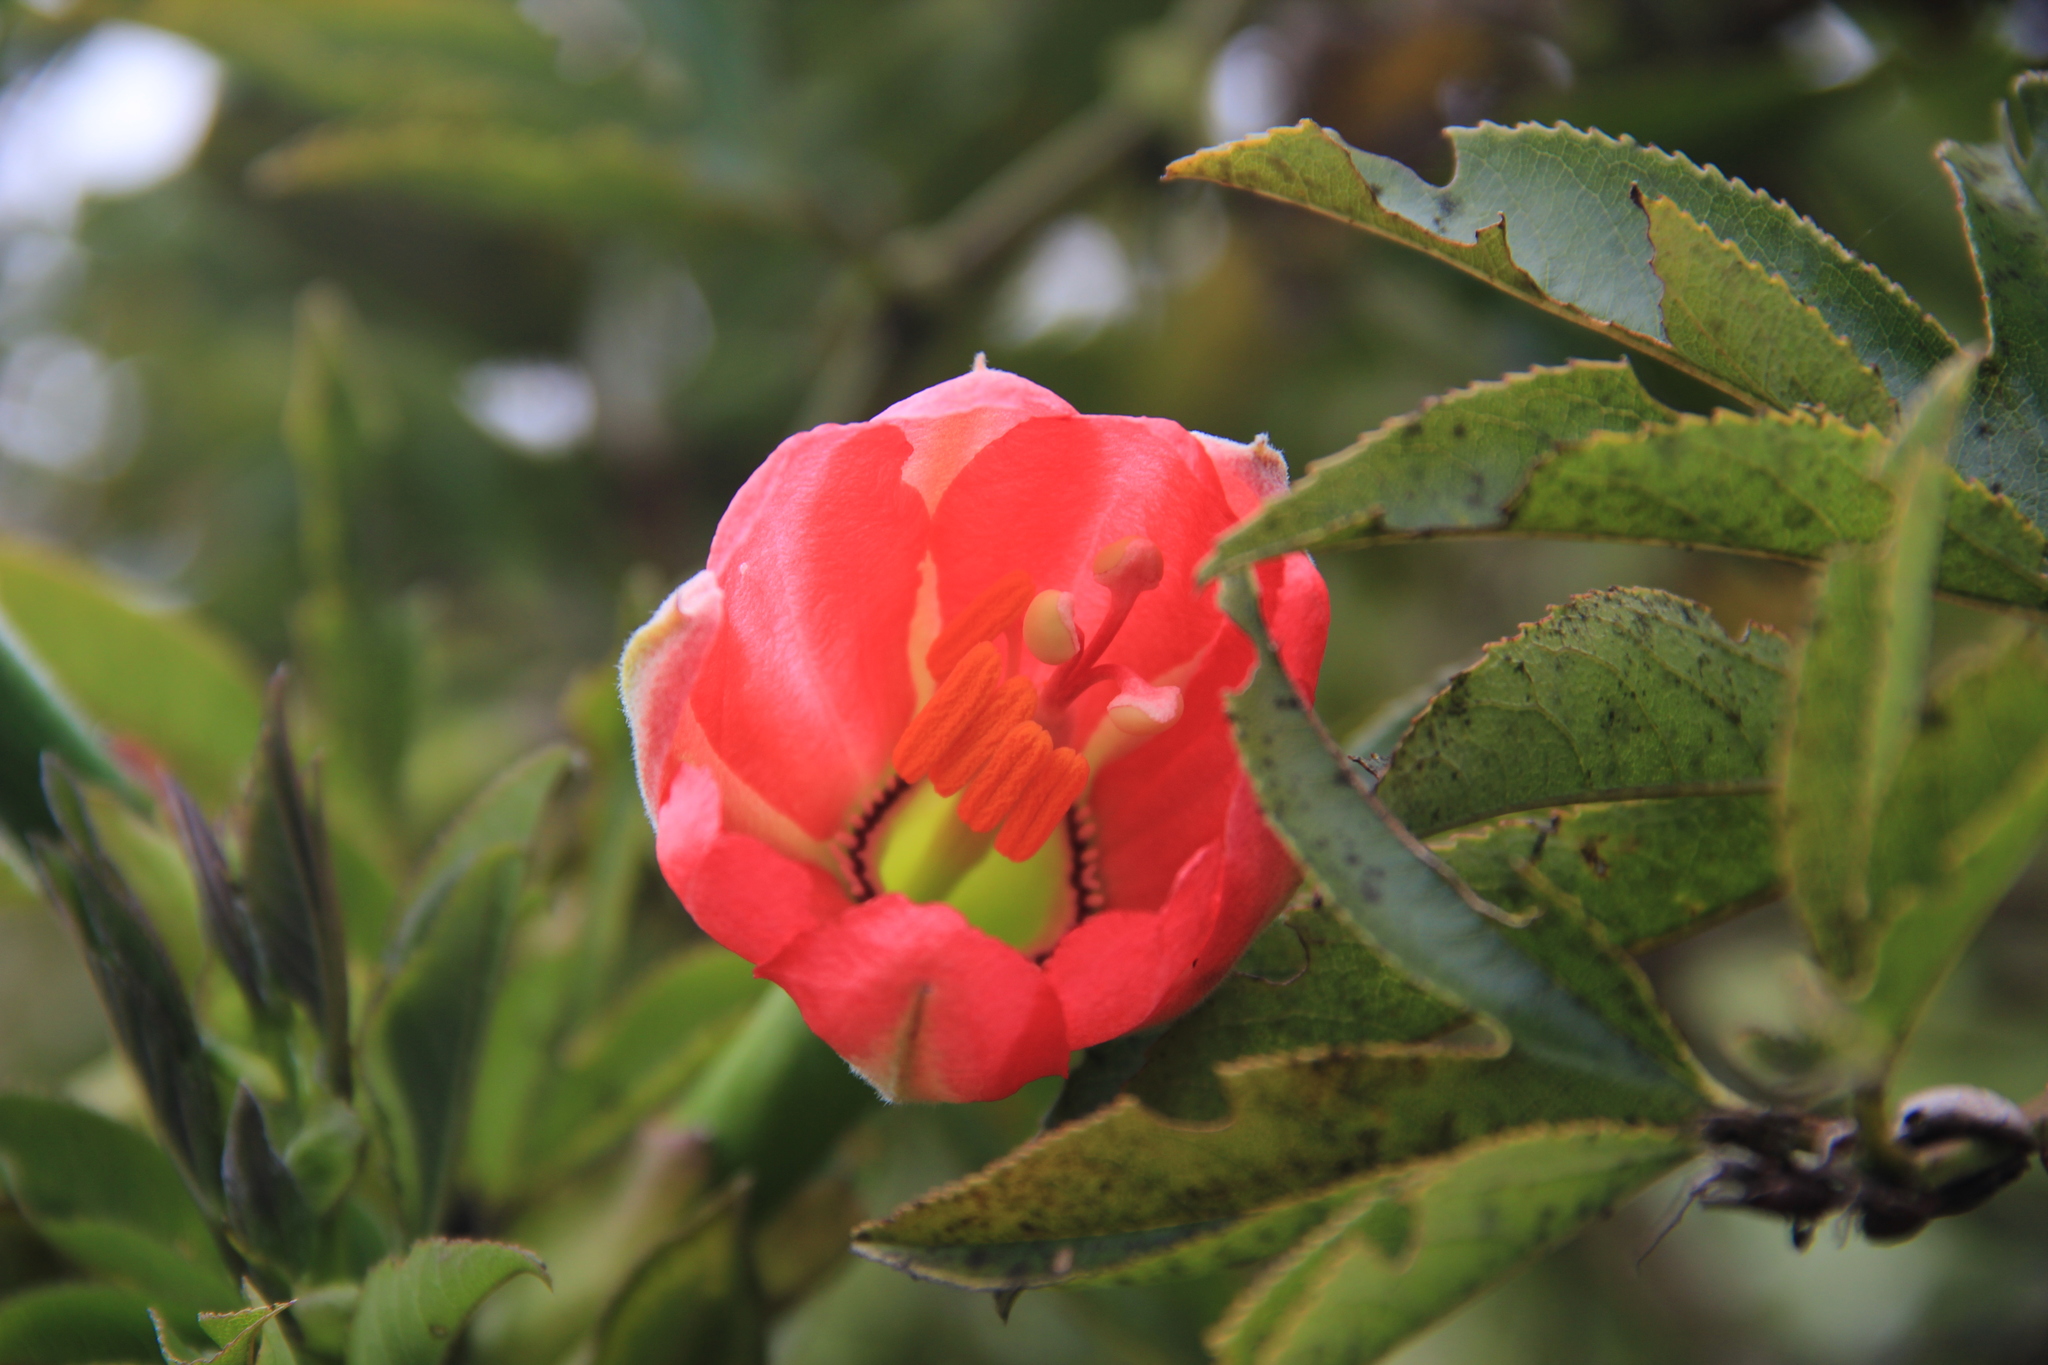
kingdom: Plantae
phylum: Tracheophyta
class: Magnoliopsida
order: Malpighiales
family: Passifloraceae
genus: Passiflora
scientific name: Passiflora mixta
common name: Passion flower
